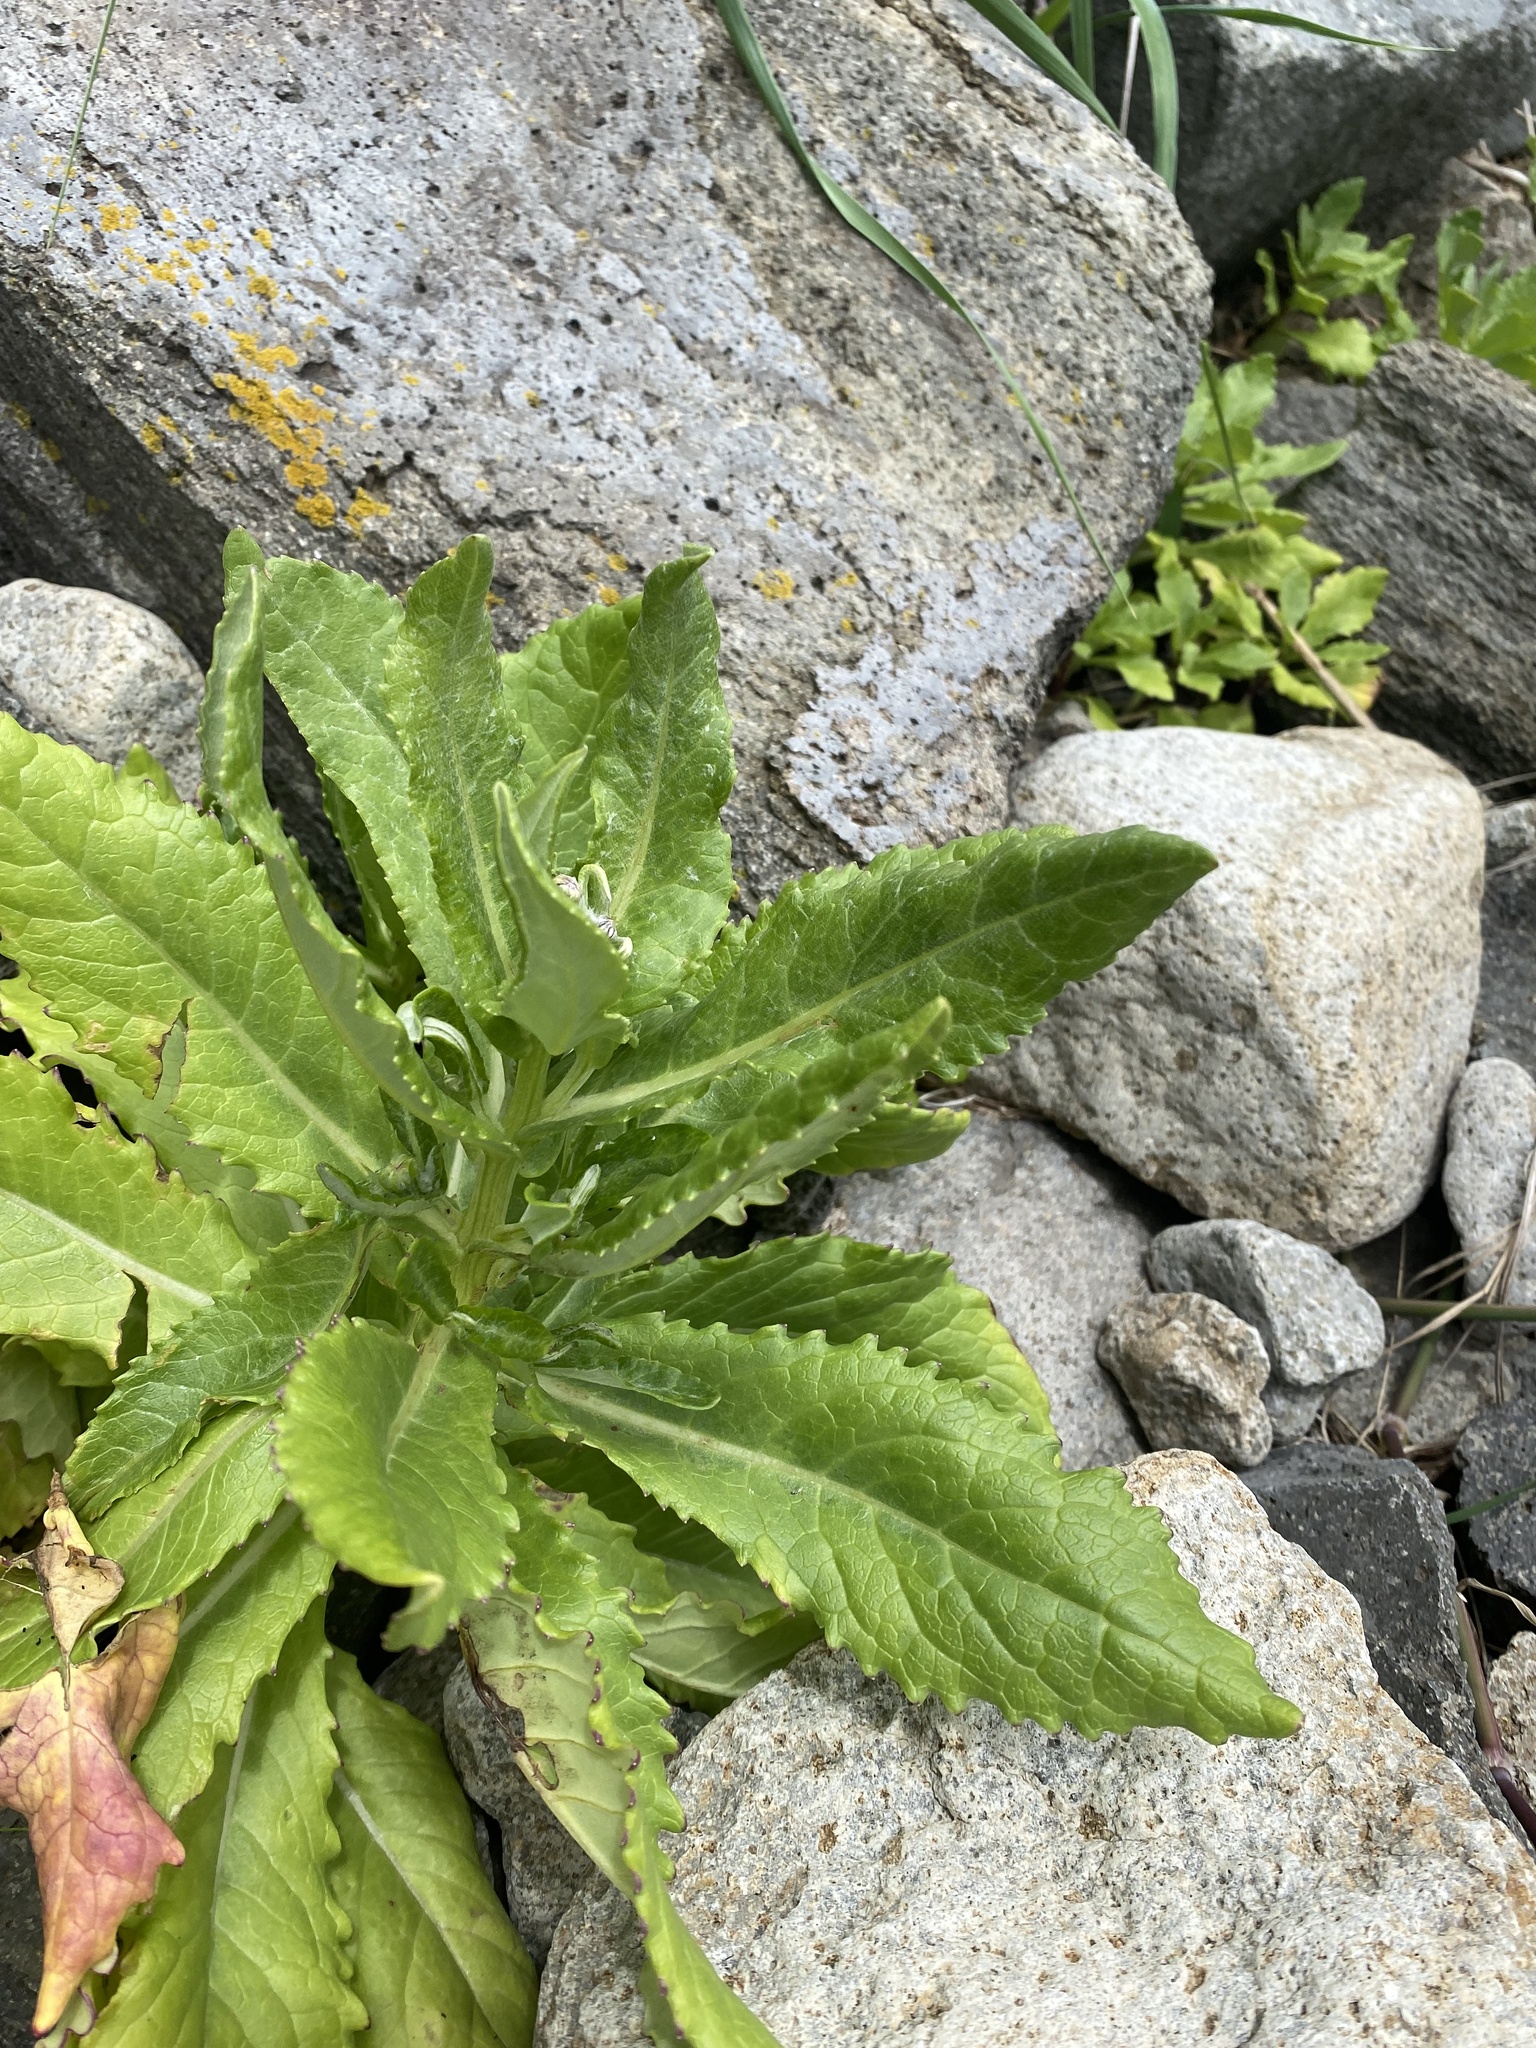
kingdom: Plantae
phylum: Tracheophyta
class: Magnoliopsida
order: Asterales
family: Asteraceae
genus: Jacobaea
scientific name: Jacobaea pseudoarnica
